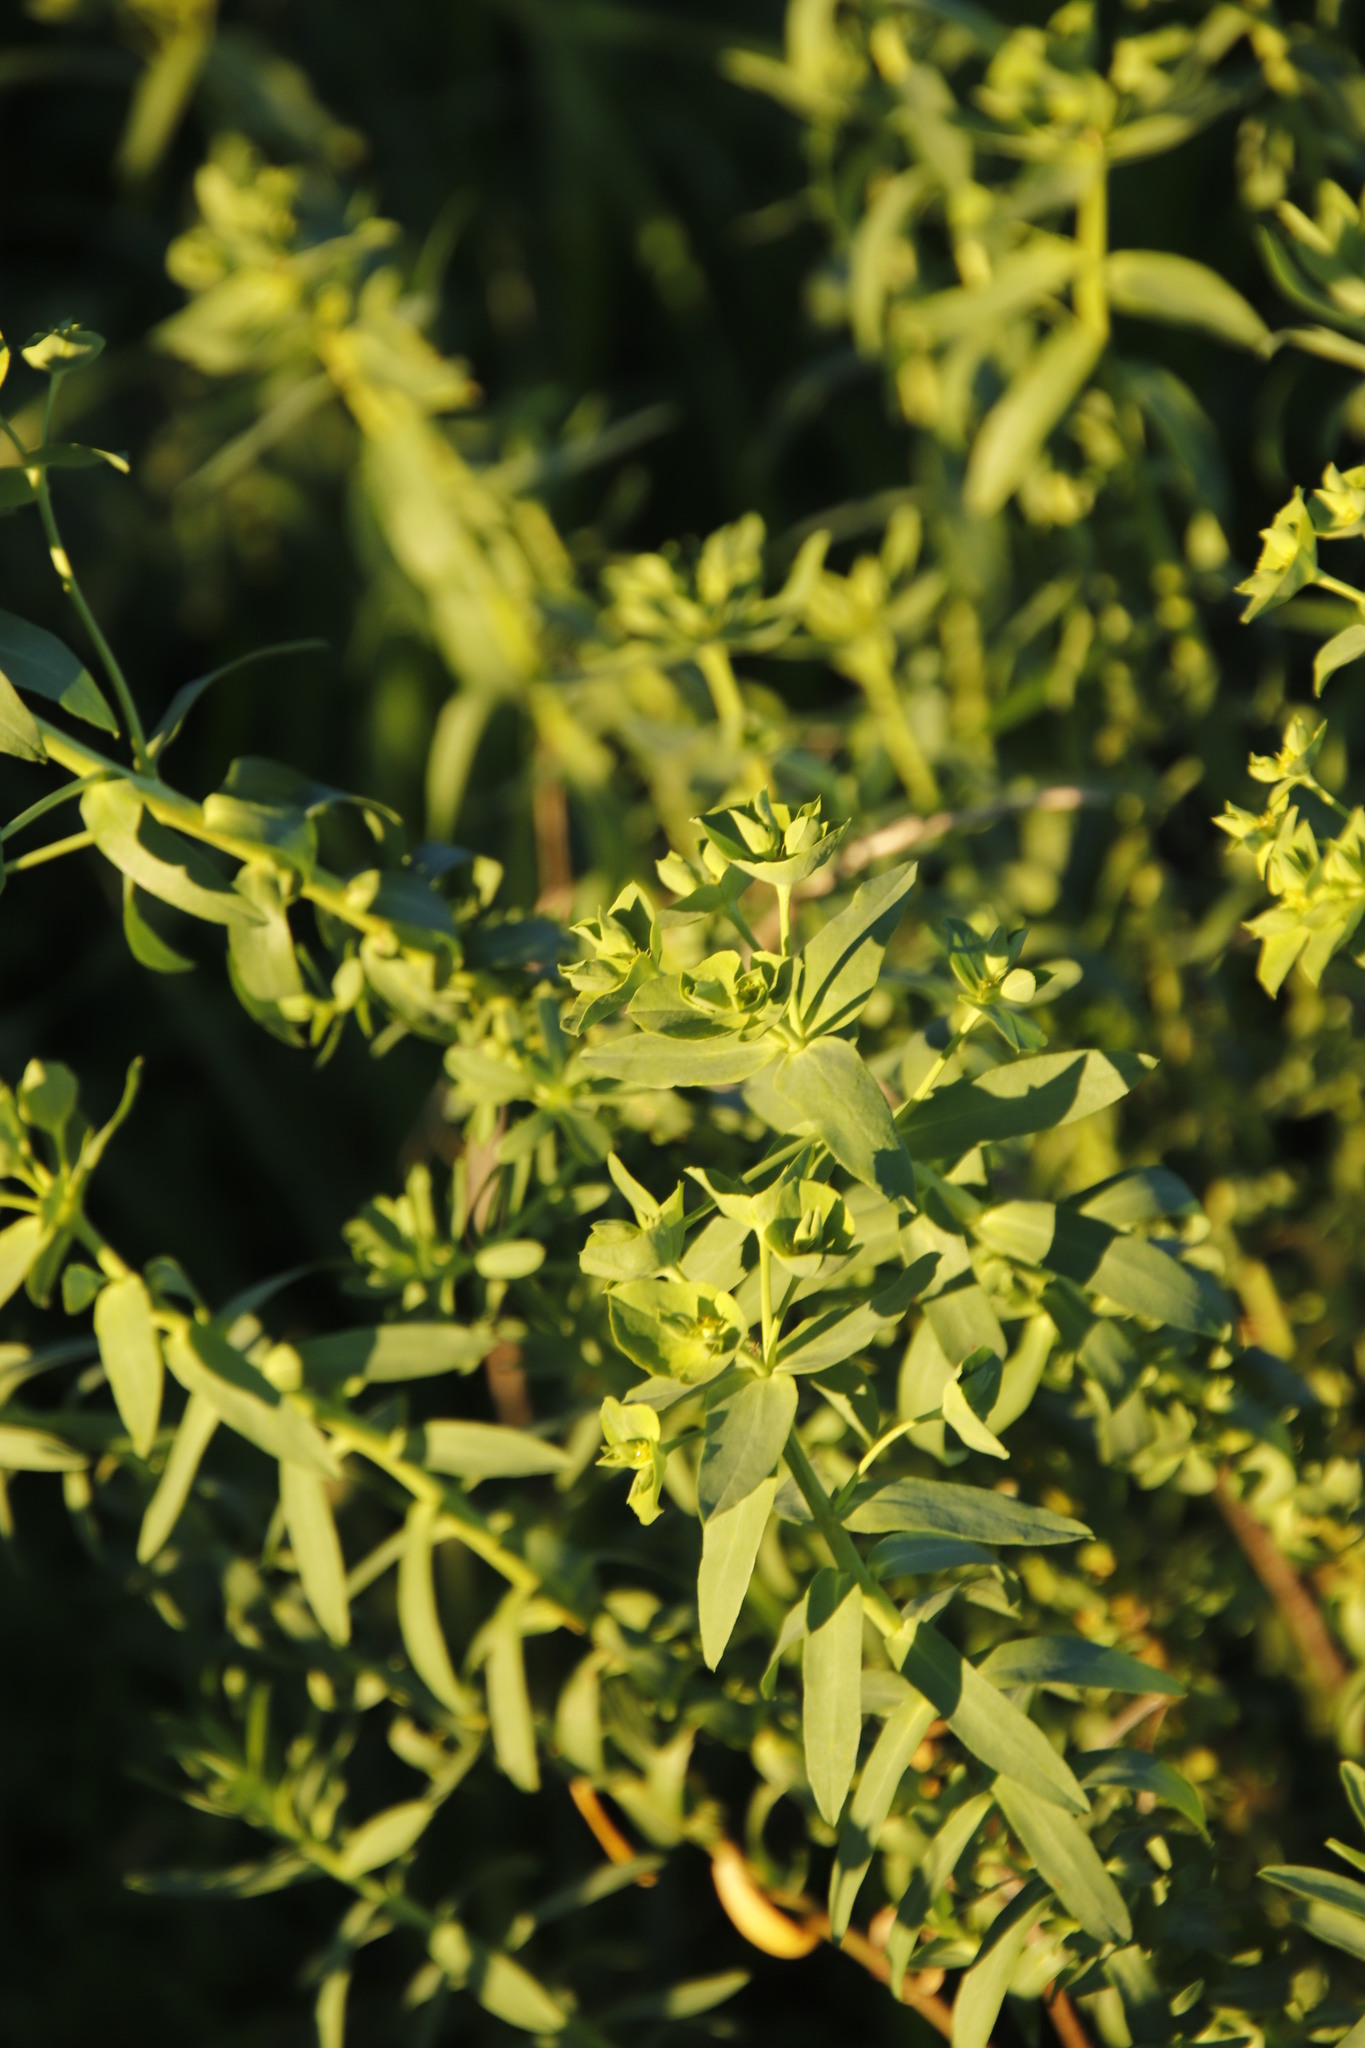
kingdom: Plantae
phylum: Tracheophyta
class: Magnoliopsida
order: Malpighiales
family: Euphorbiaceae
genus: Euphorbia
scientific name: Euphorbia terracina
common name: Geraldton carnation weed
